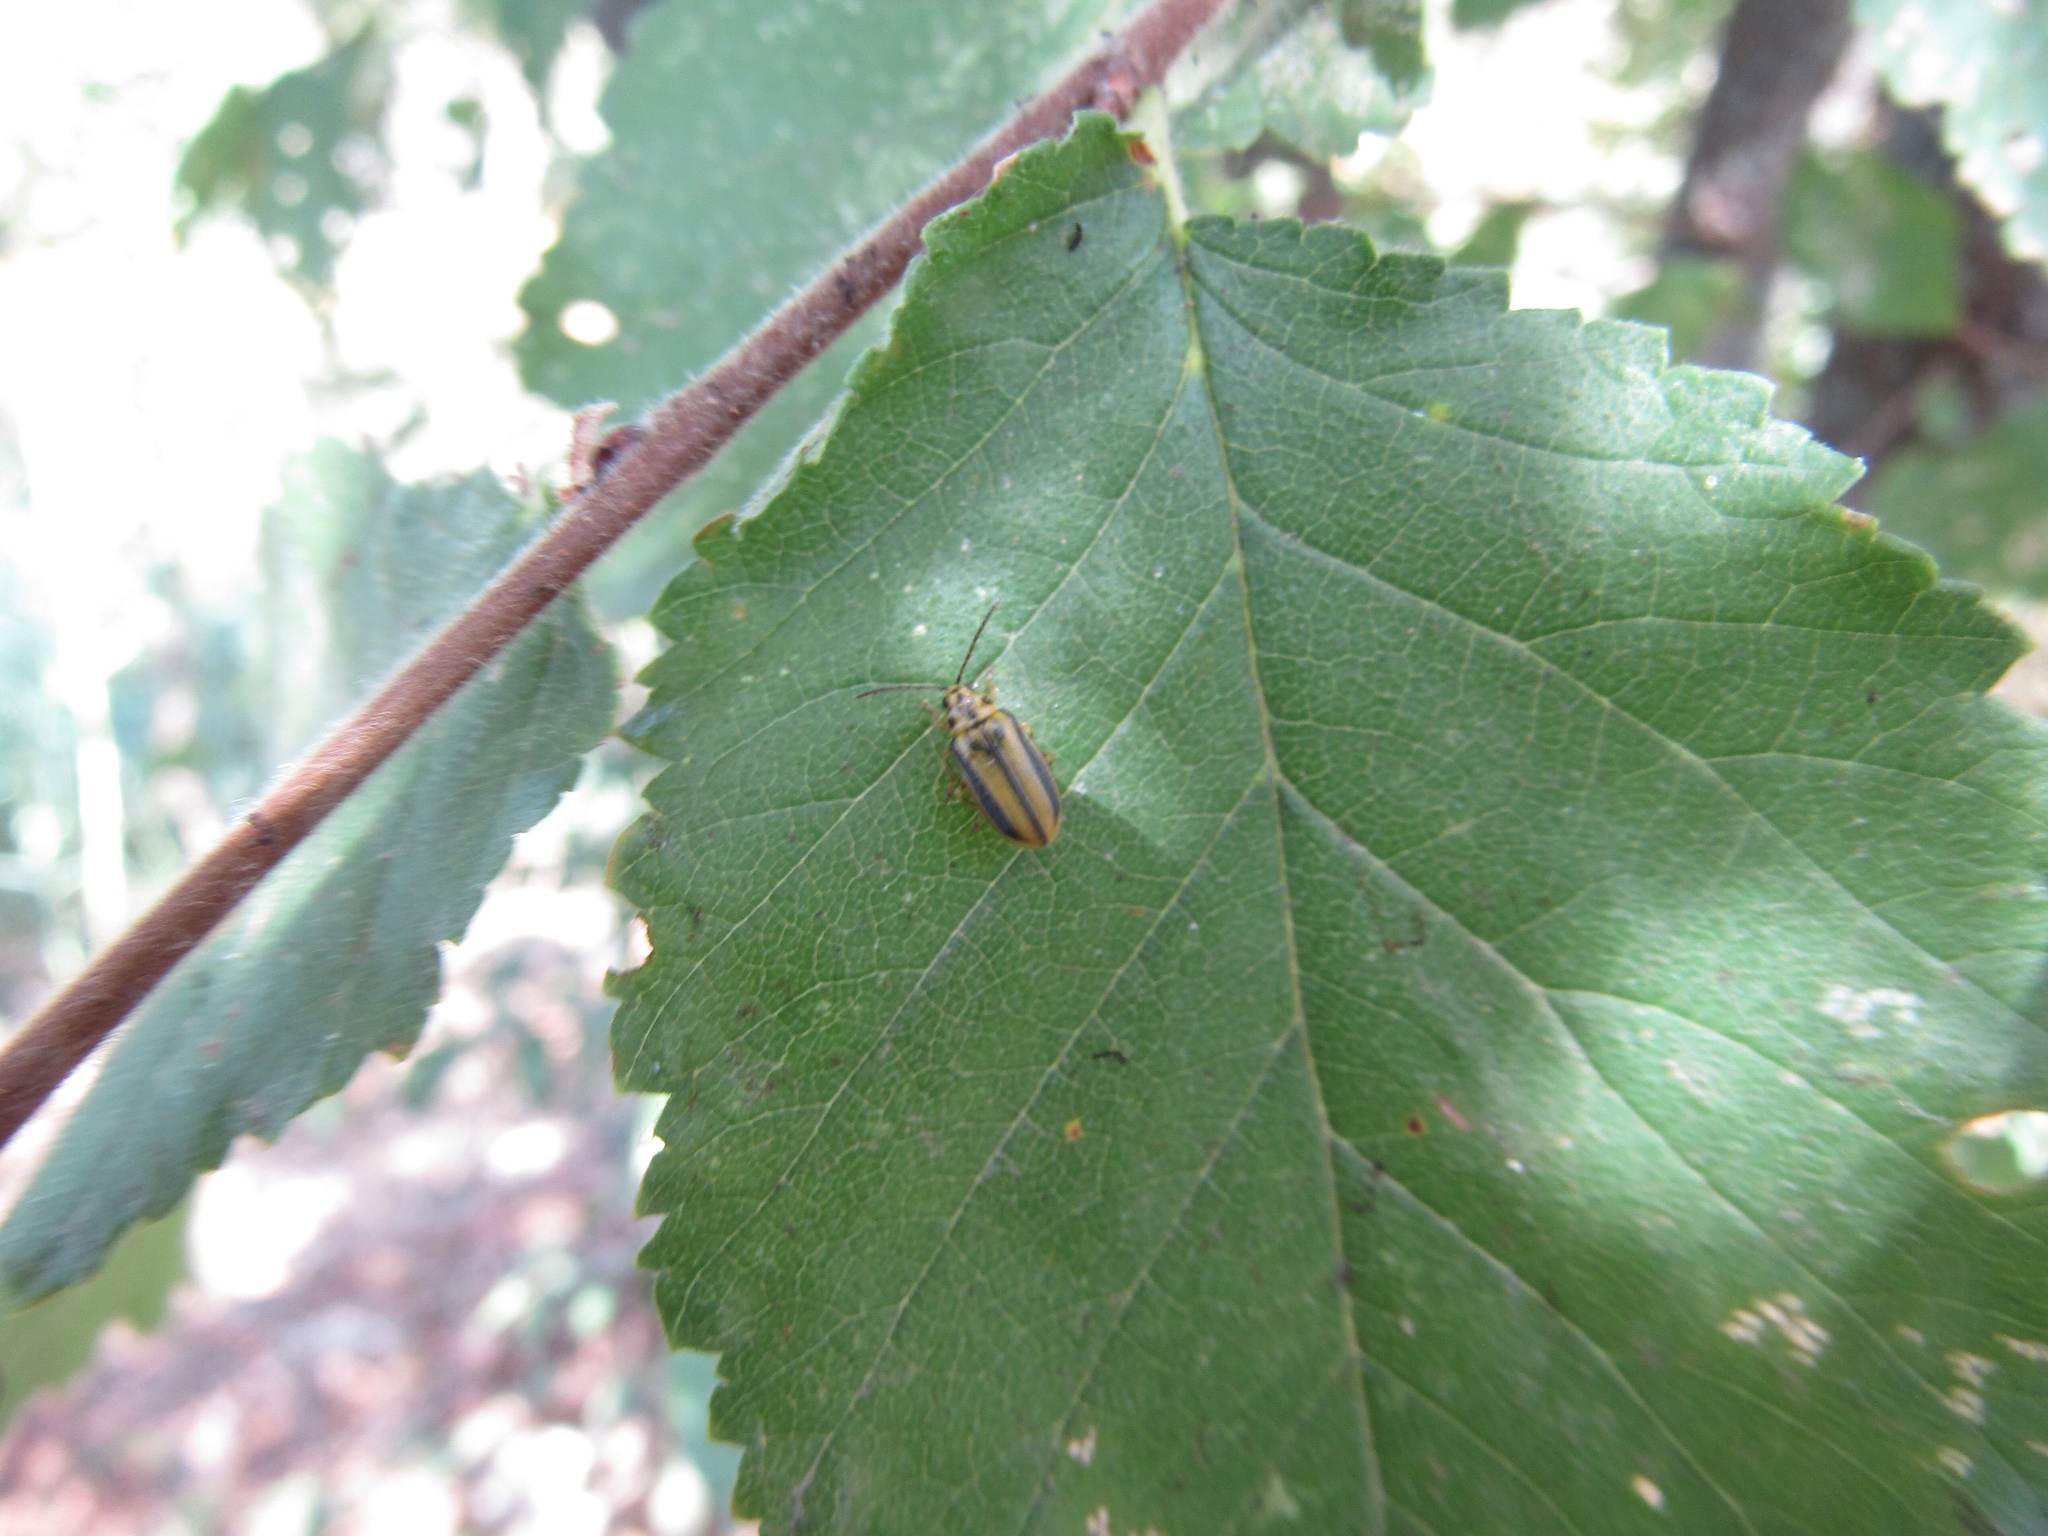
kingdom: Animalia
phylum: Arthropoda
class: Insecta
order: Coleoptera
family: Chrysomelidae
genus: Xanthogaleruca
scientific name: Xanthogaleruca luteola
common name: Elm leaf beetle
